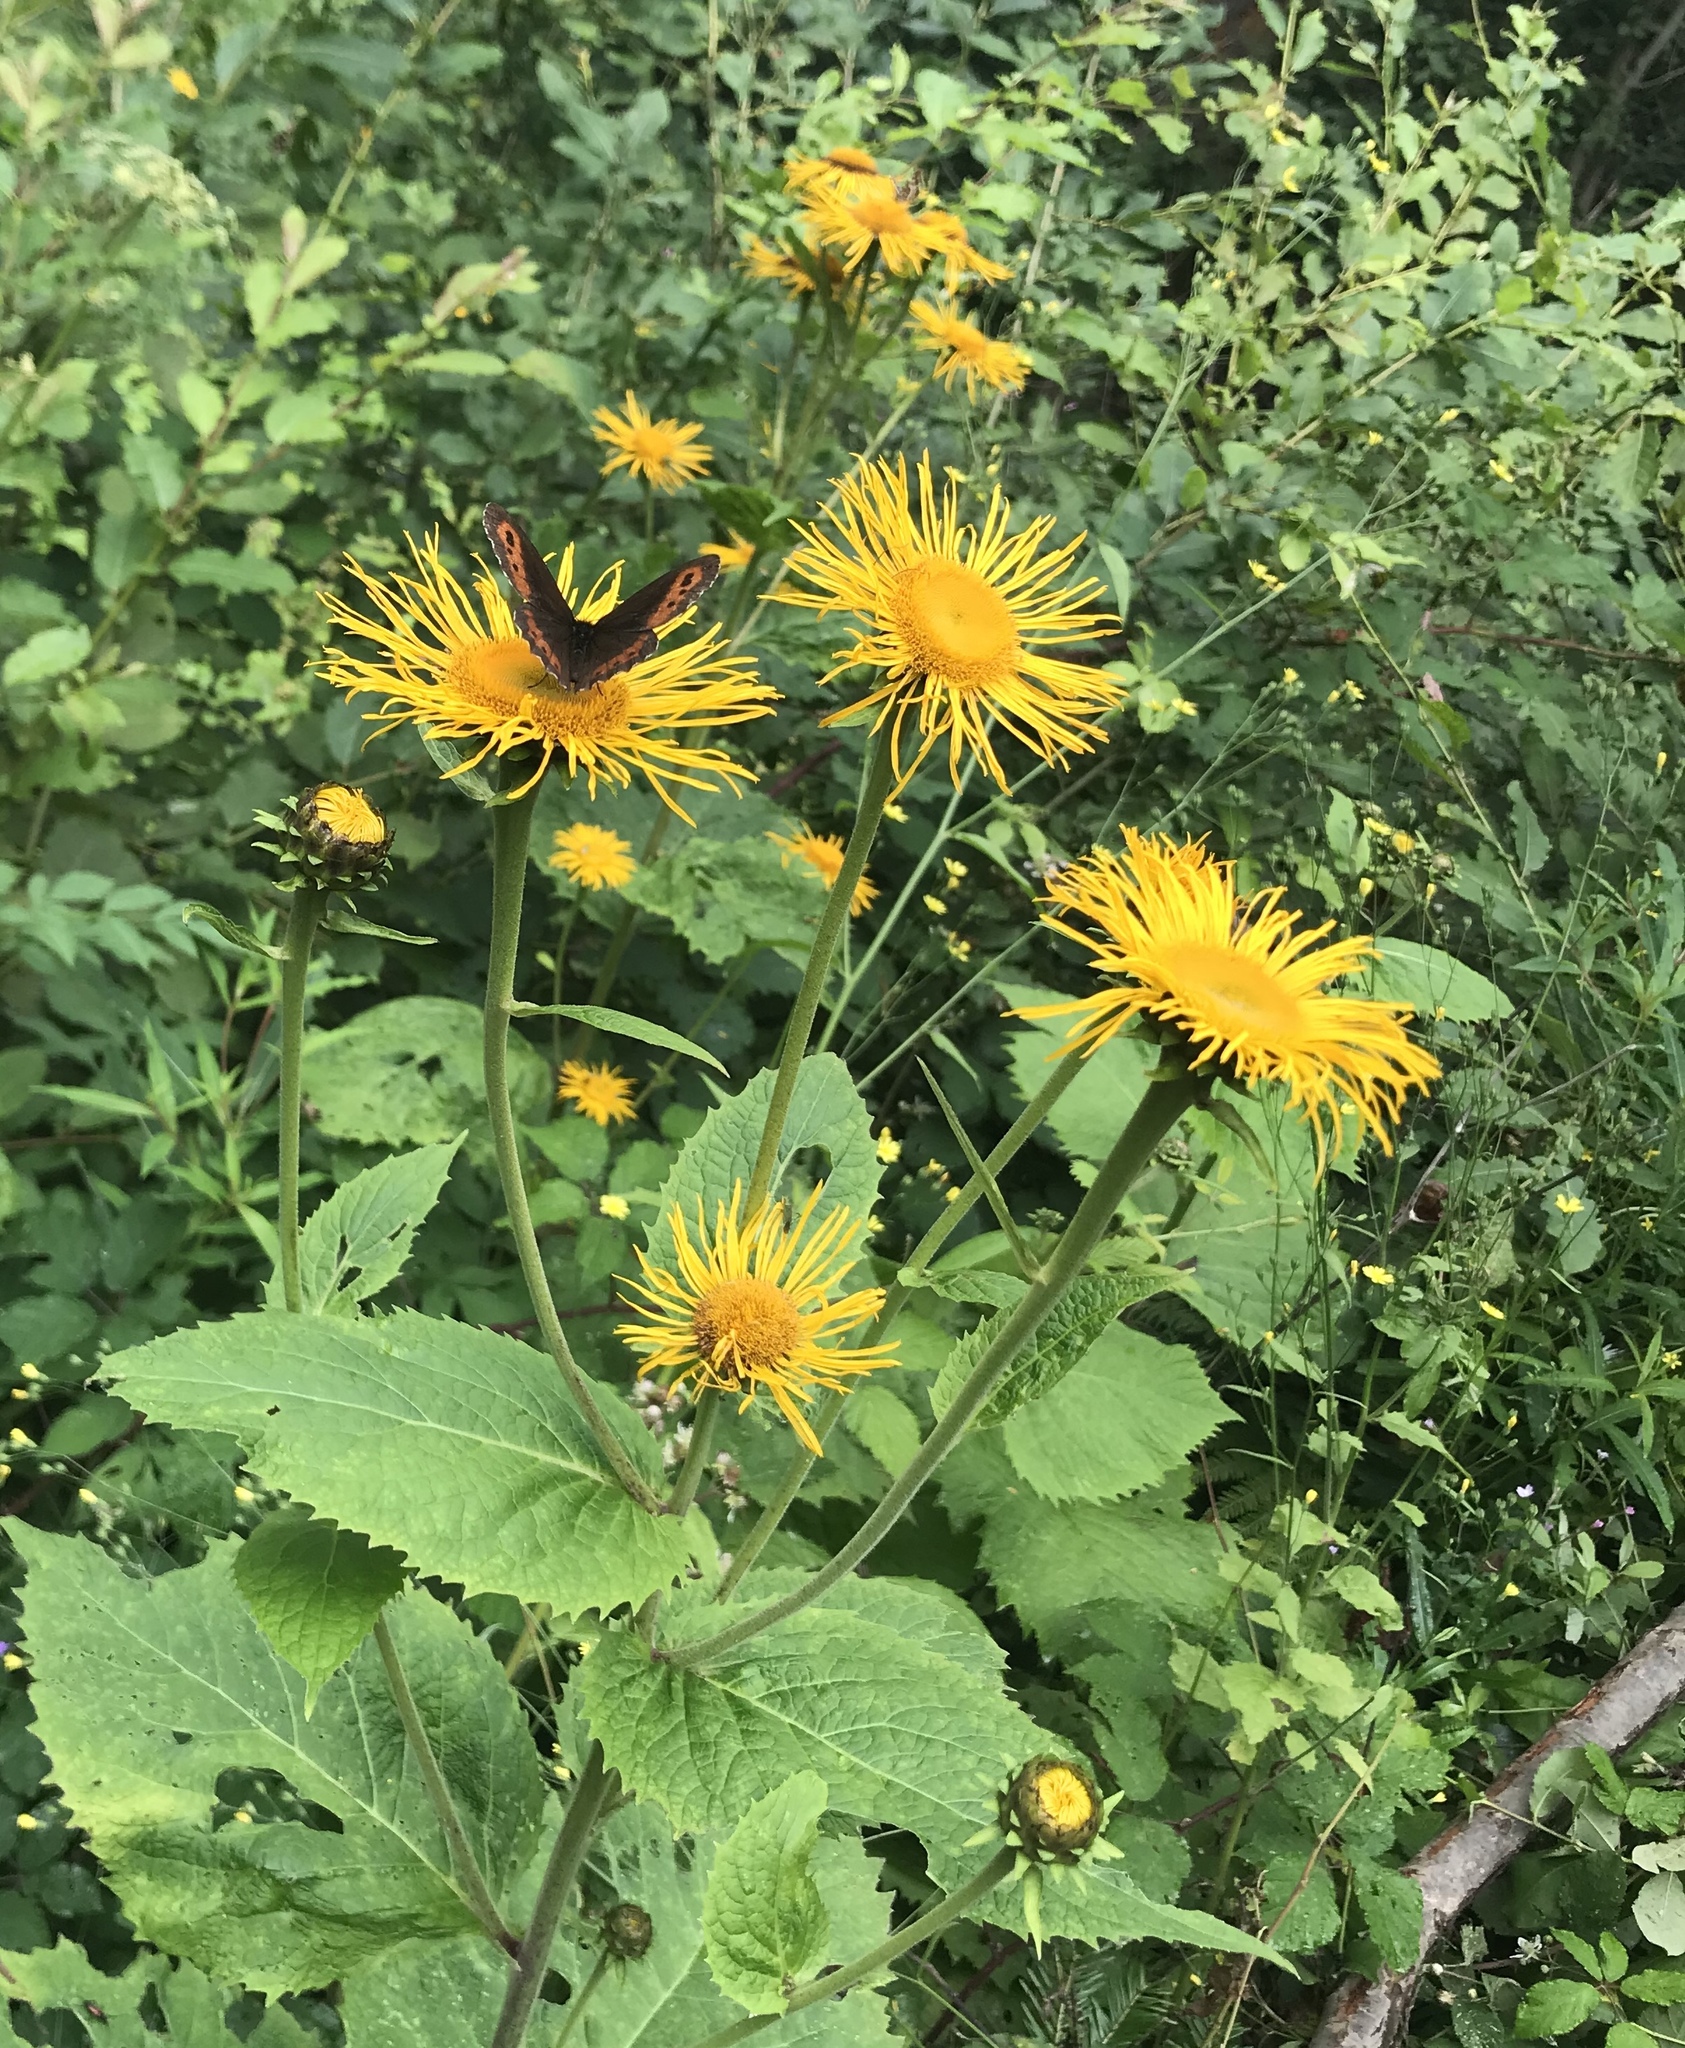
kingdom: Plantae
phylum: Tracheophyta
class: Magnoliopsida
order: Asterales
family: Asteraceae
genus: Telekia
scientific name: Telekia speciosa
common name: Yellow oxeye
